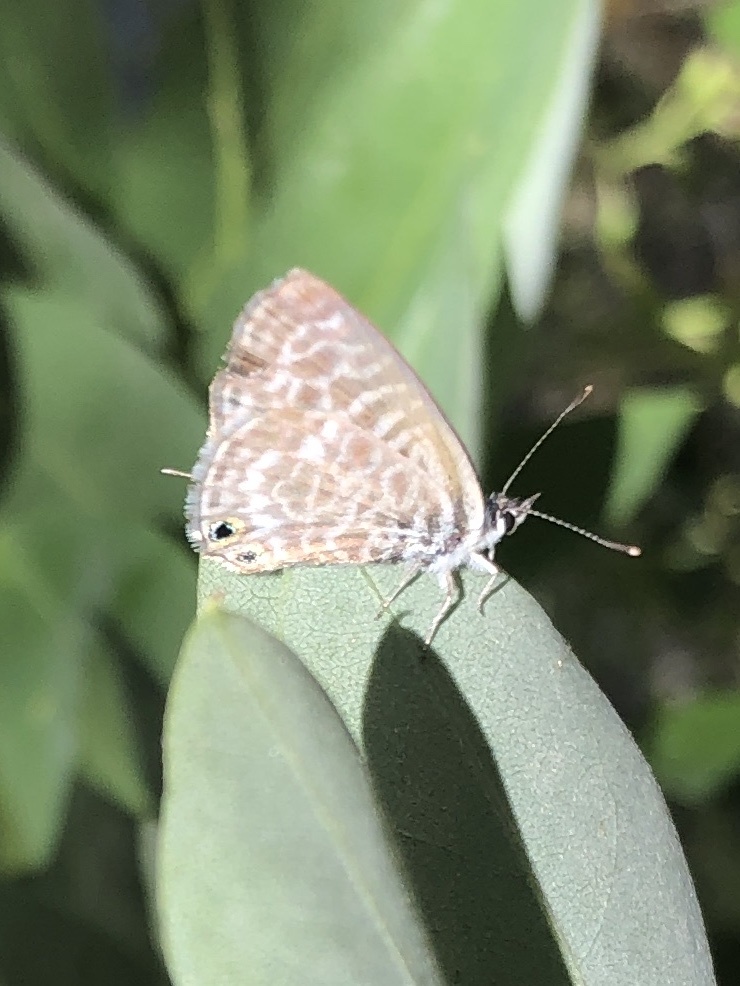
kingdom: Animalia
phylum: Arthropoda
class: Insecta
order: Lepidoptera
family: Lycaenidae
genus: Leptotes
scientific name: Leptotes pirithous
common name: Lang's short-tailed blue
